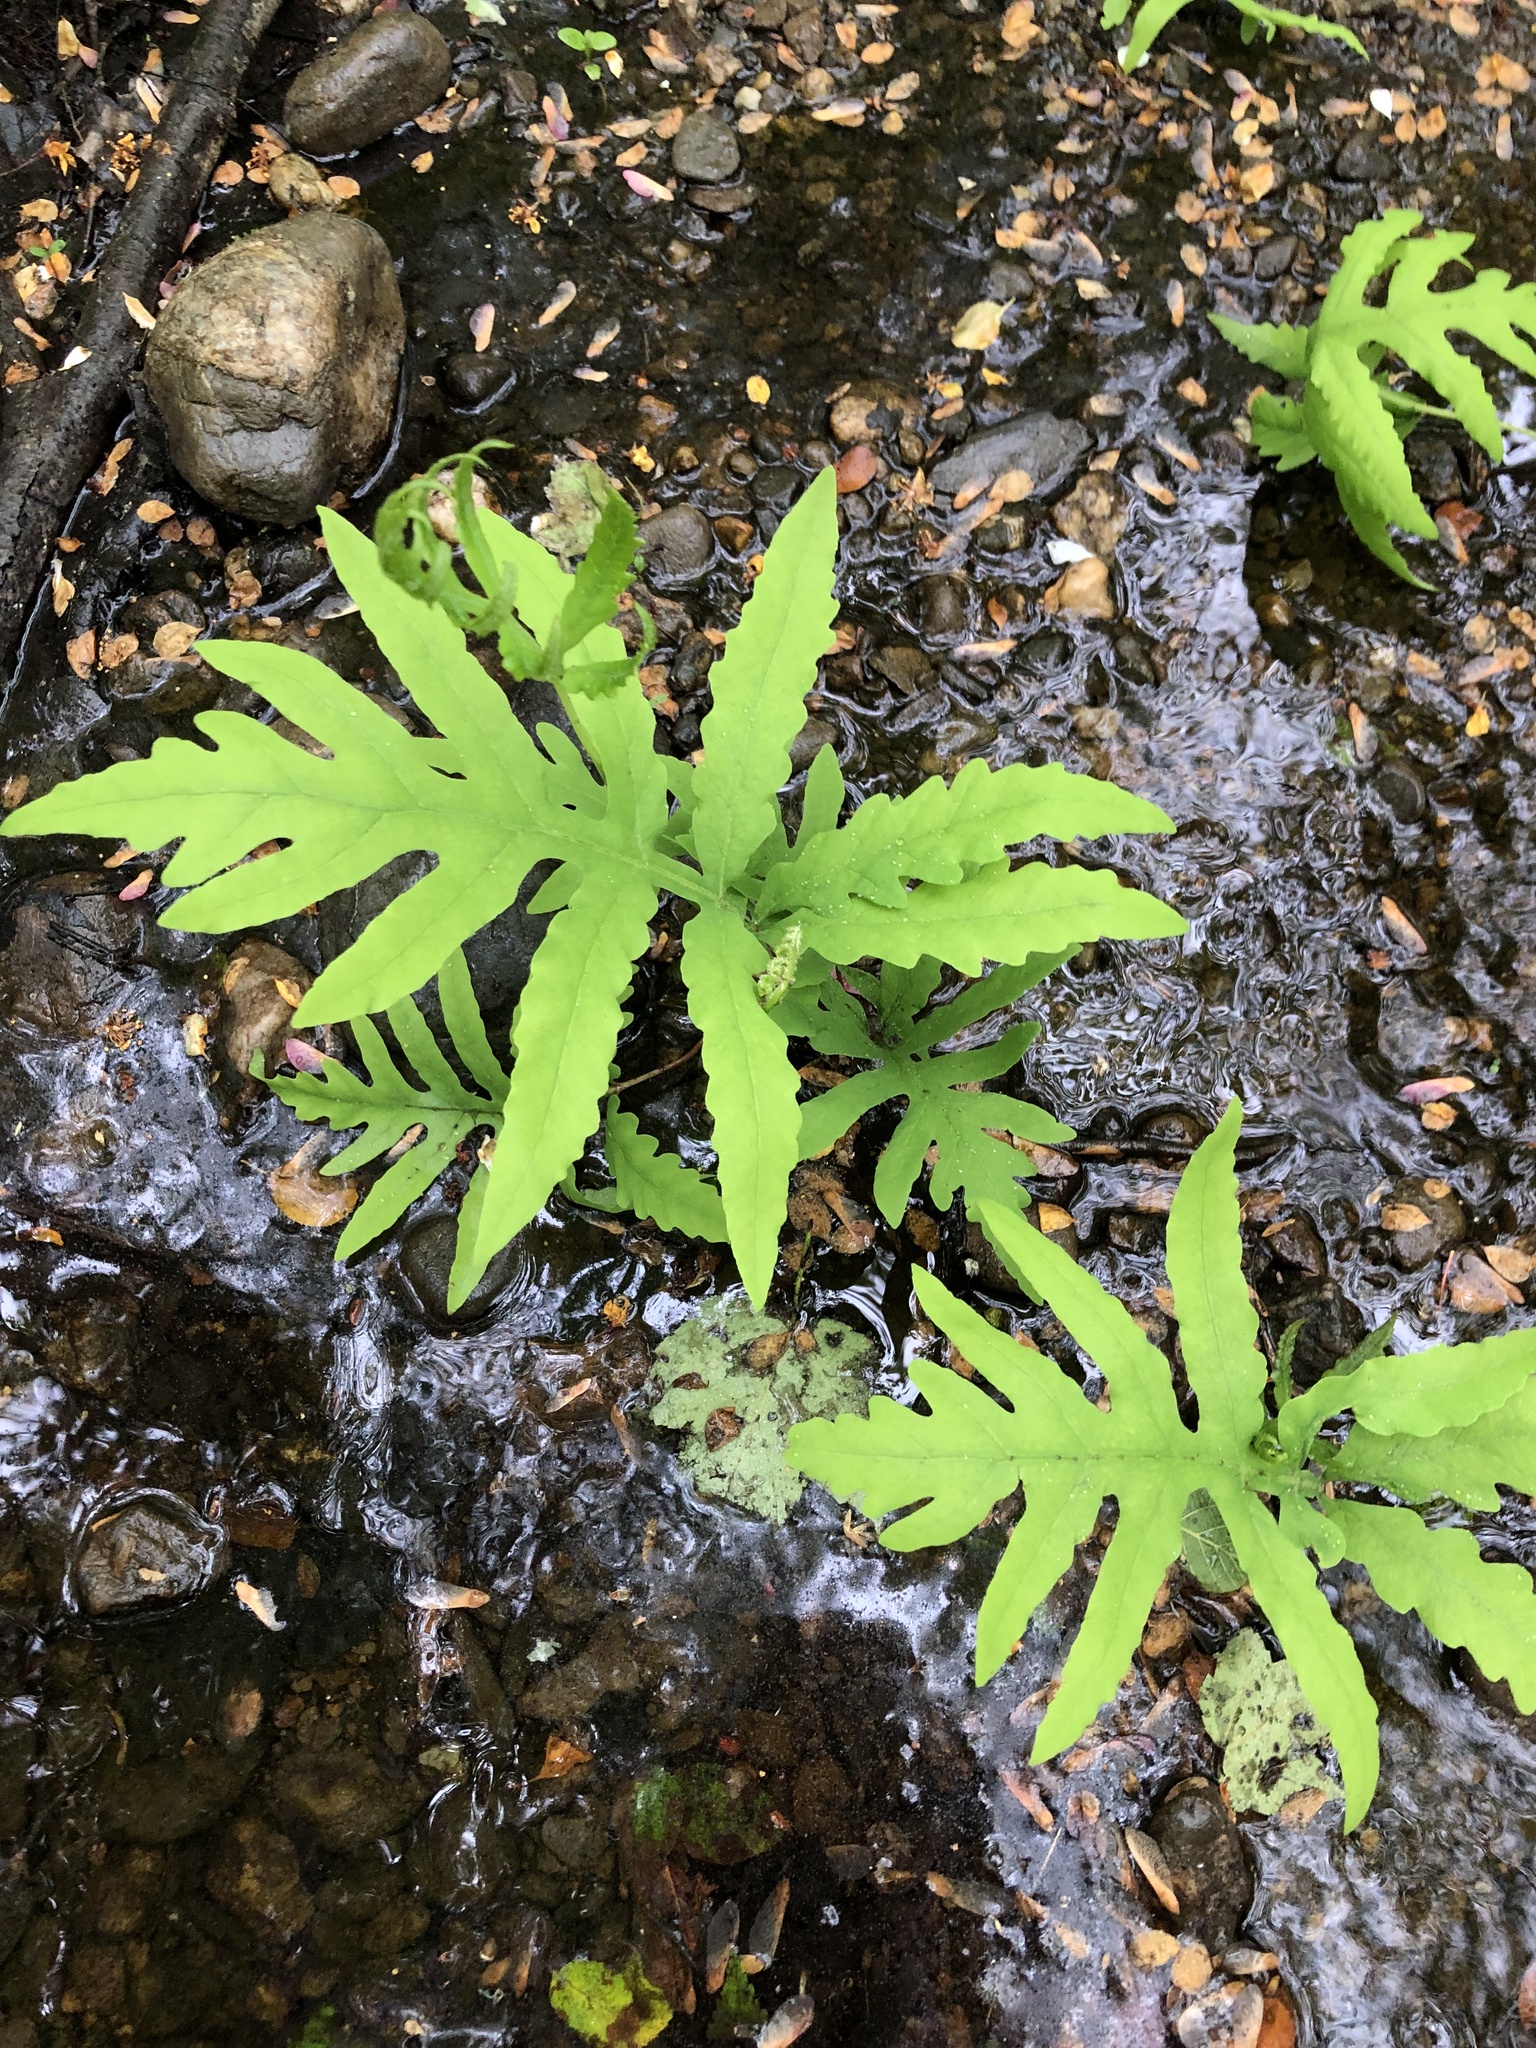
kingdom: Plantae
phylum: Tracheophyta
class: Polypodiopsida
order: Polypodiales
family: Onocleaceae
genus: Onoclea
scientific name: Onoclea sensibilis
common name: Sensitive fern
